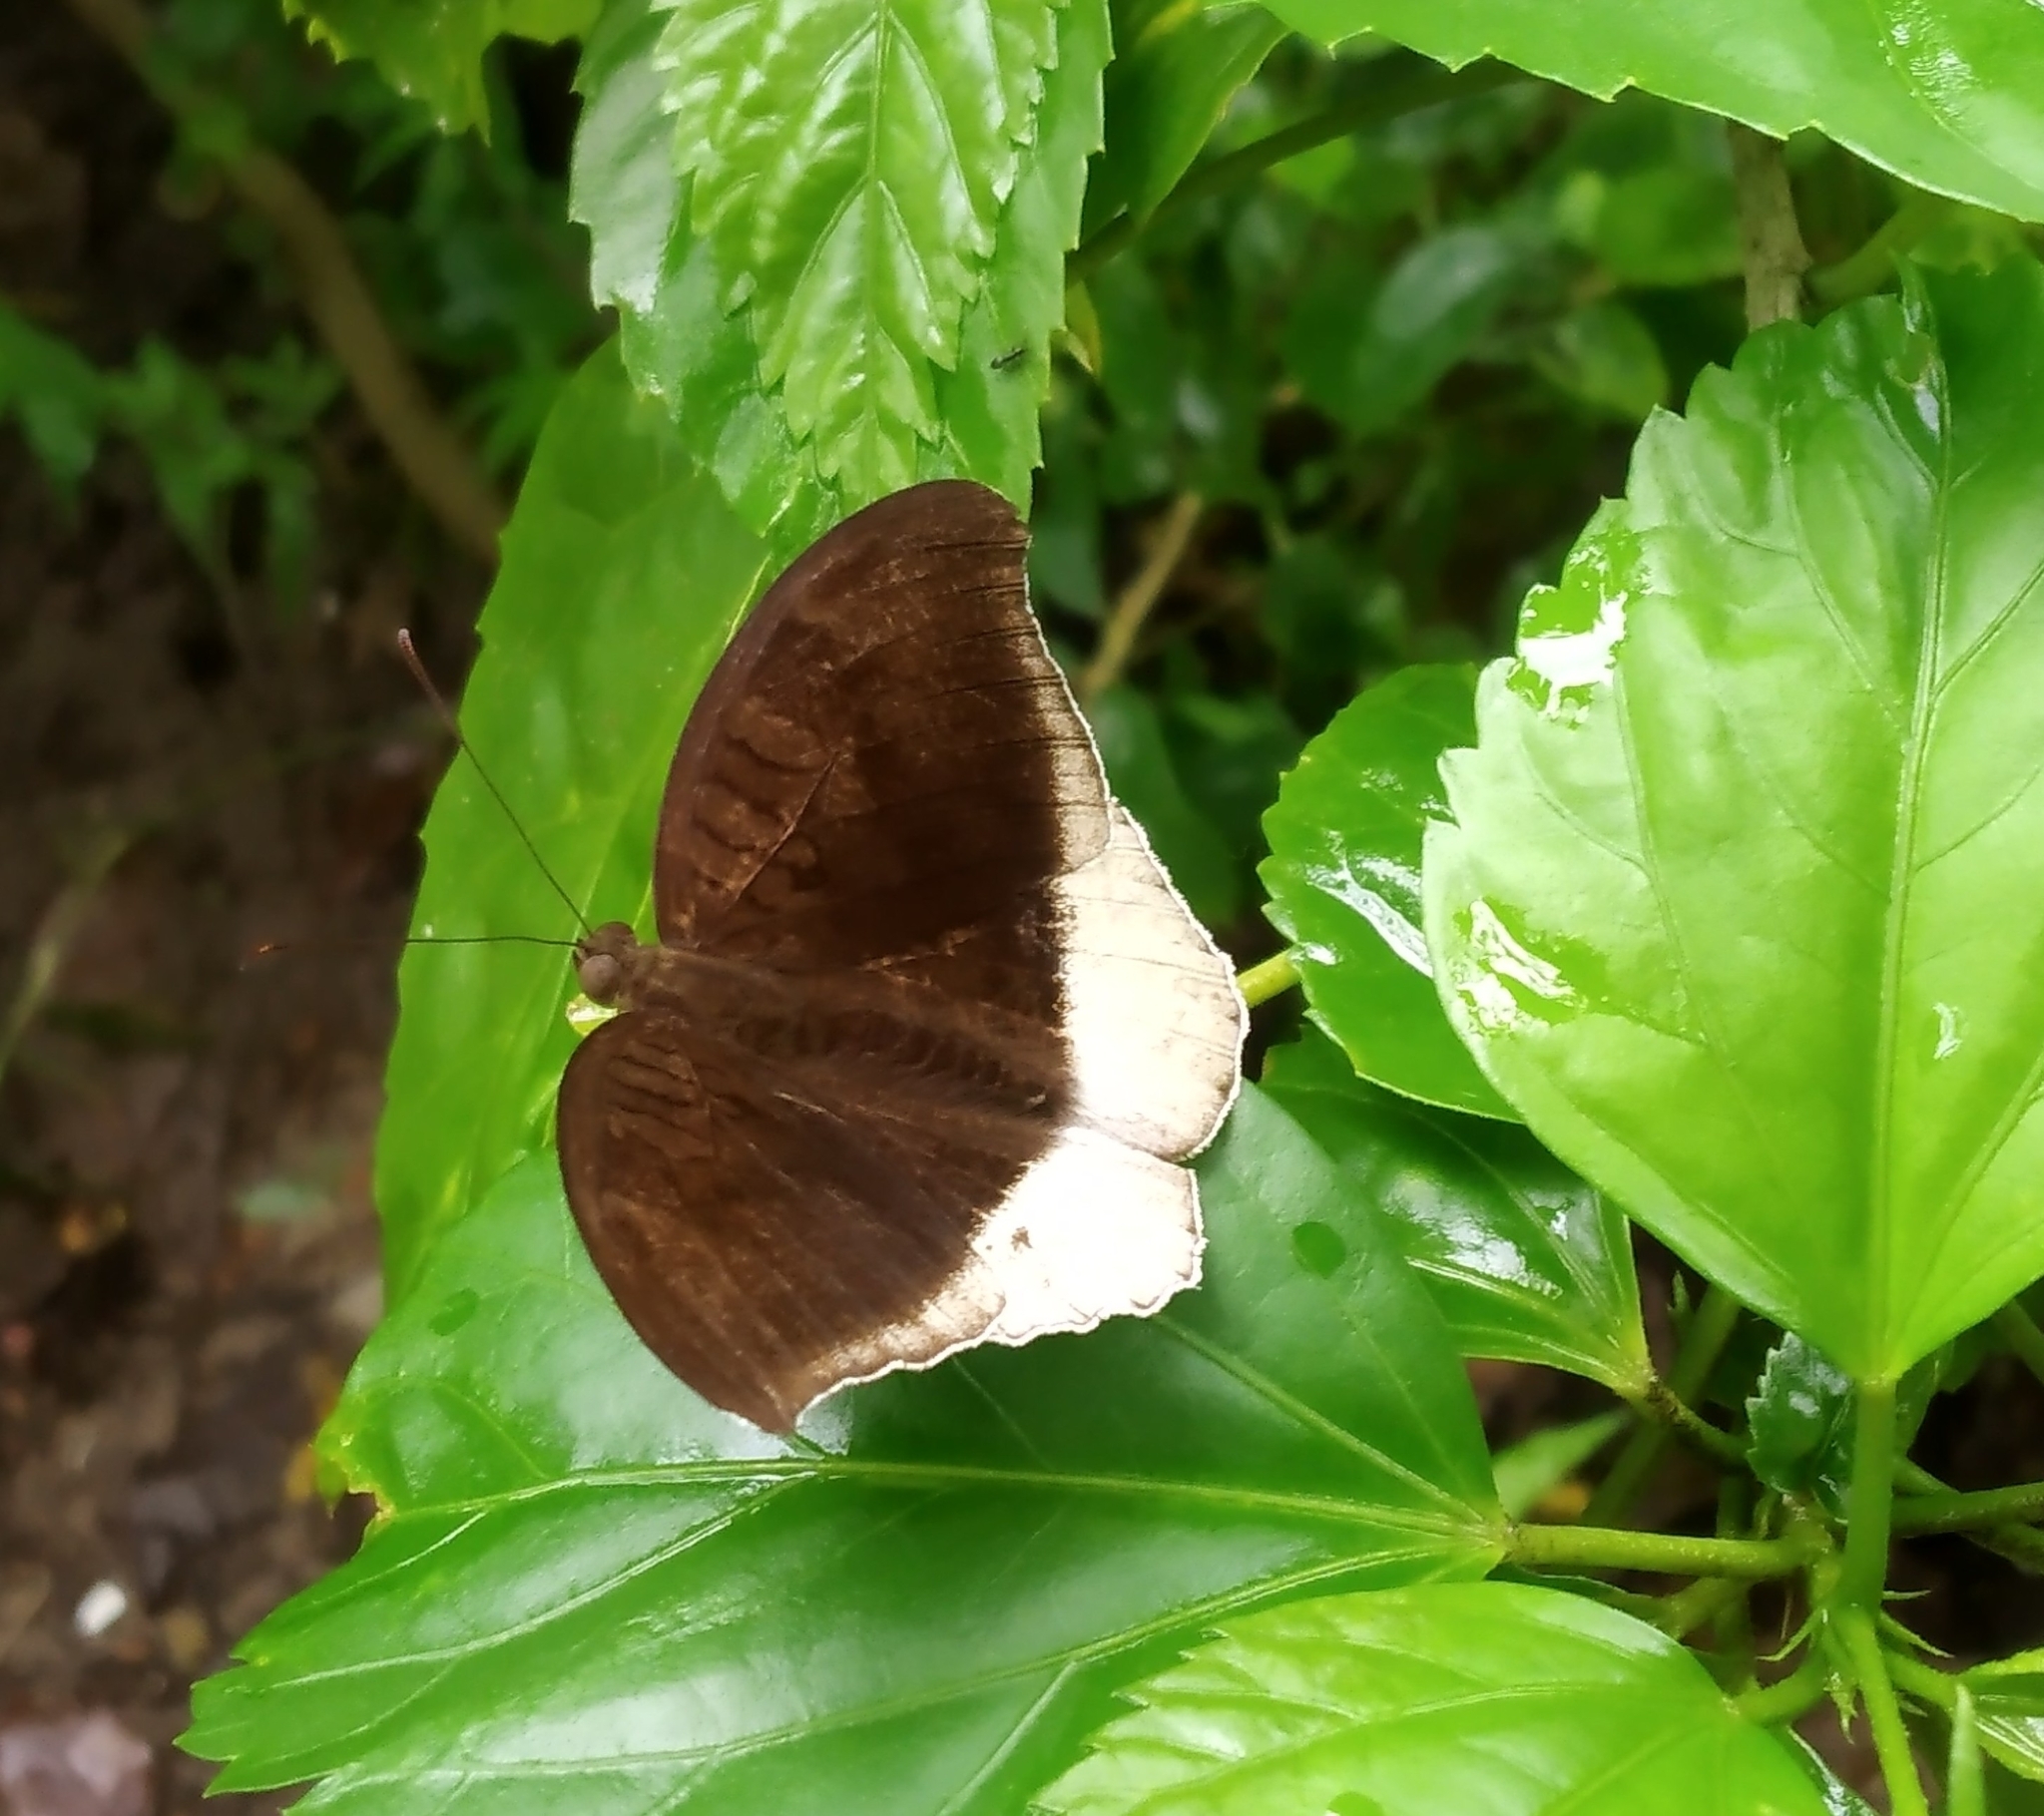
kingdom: Animalia
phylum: Arthropoda
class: Insecta
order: Lepidoptera
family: Nymphalidae
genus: Tanaecia
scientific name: Tanaecia lepidea
